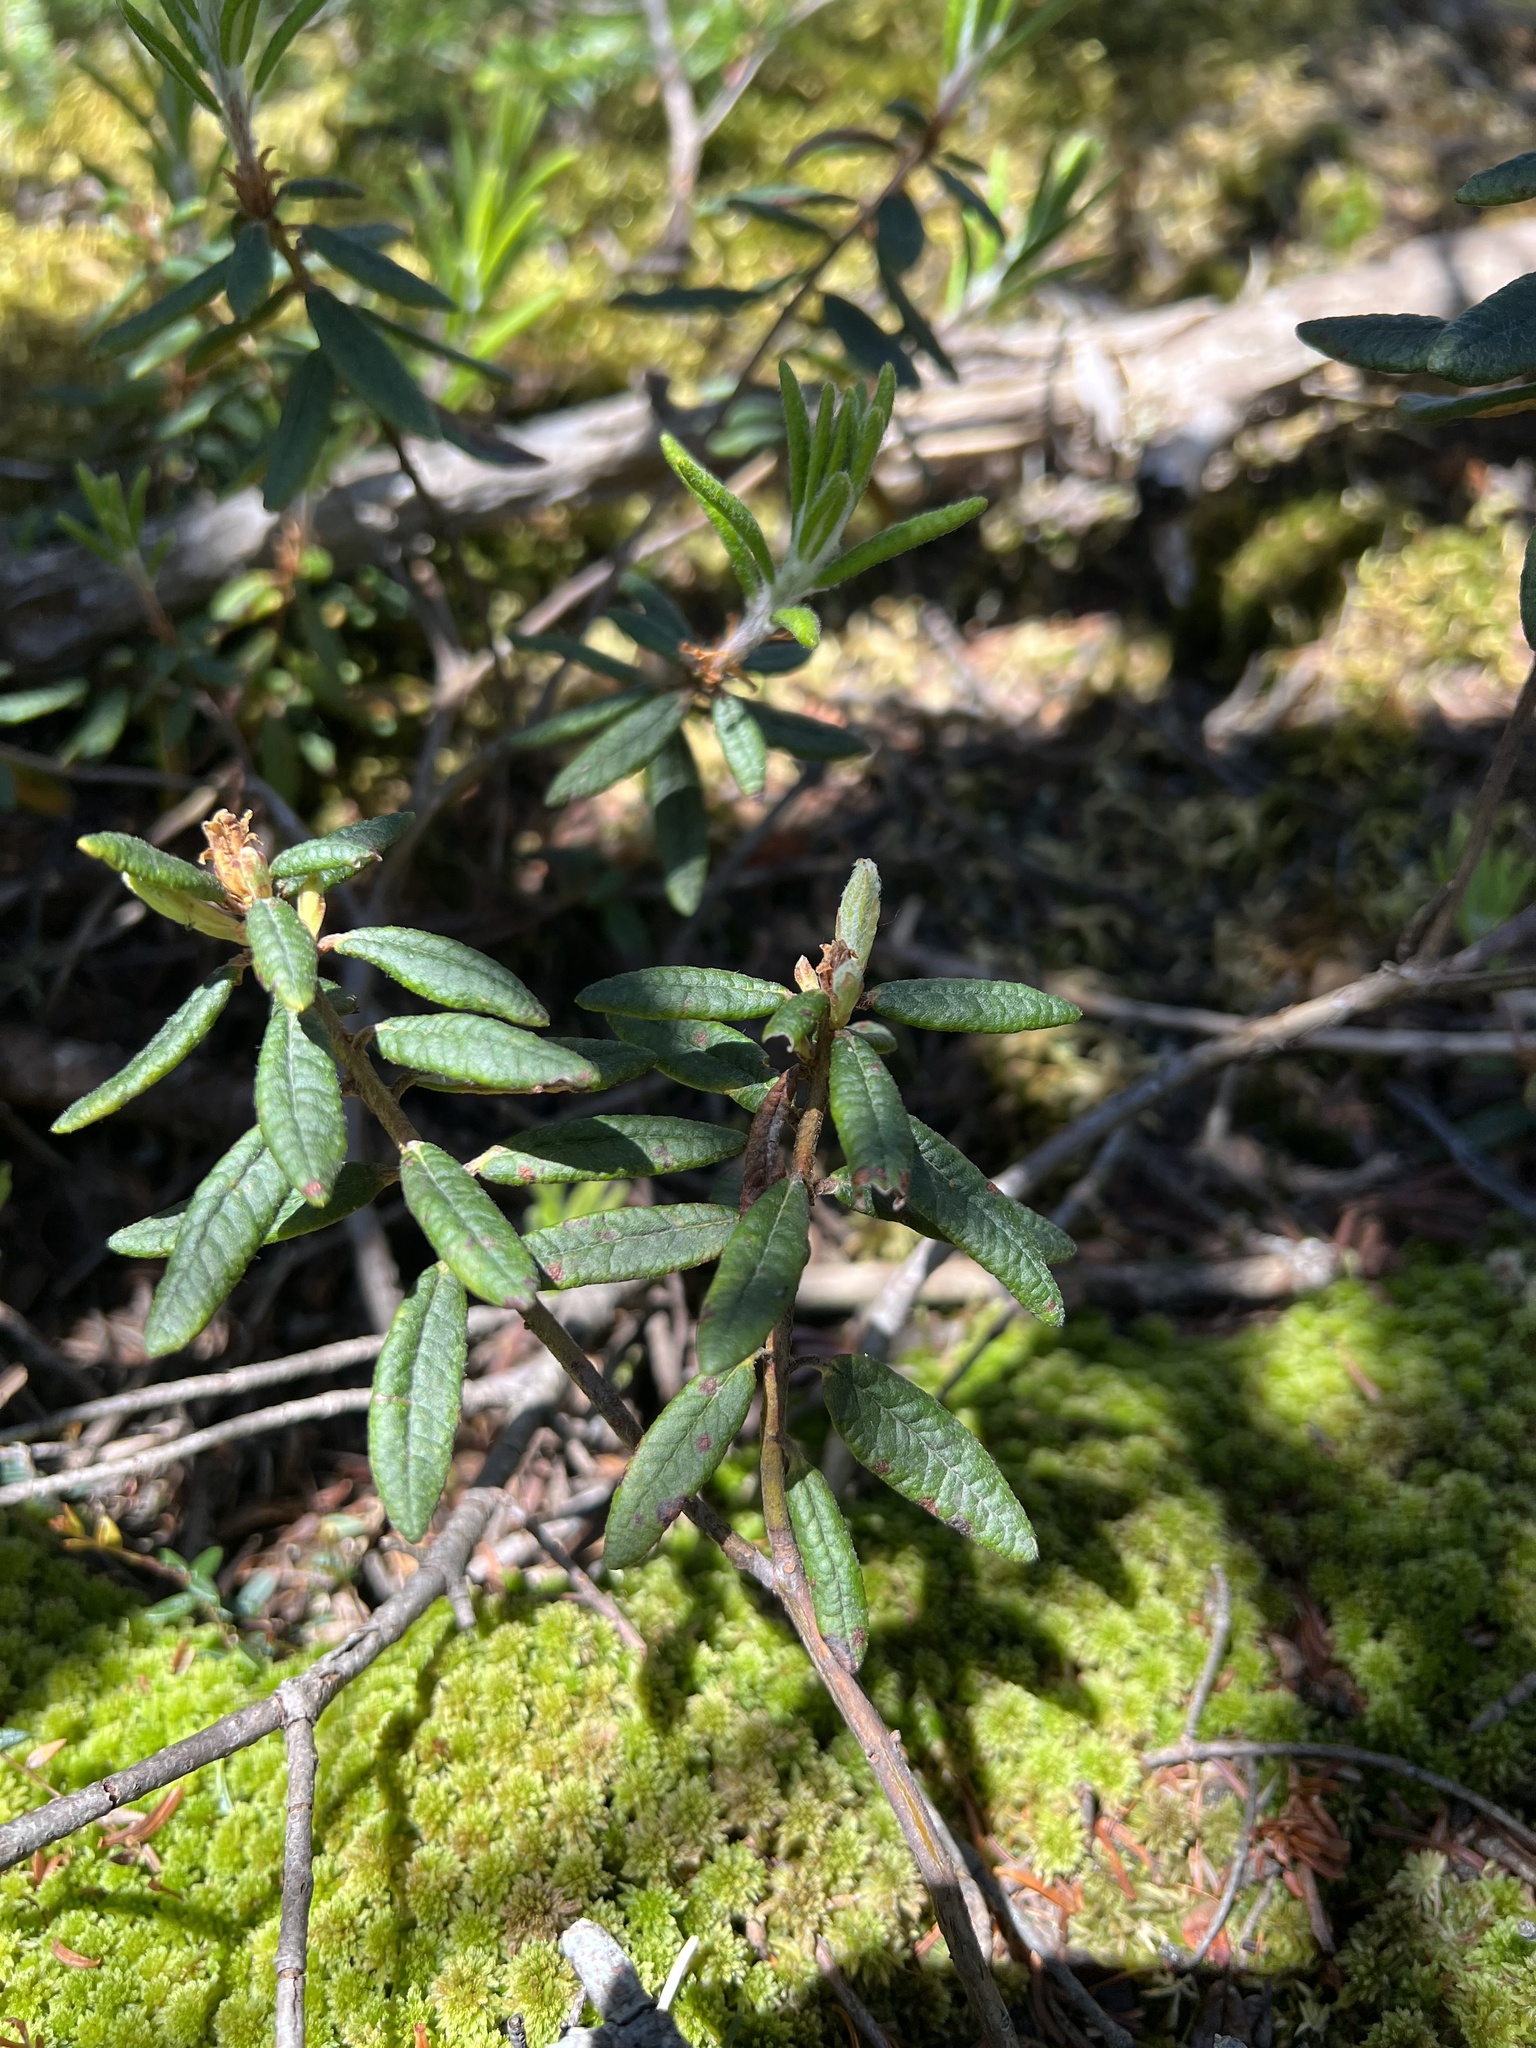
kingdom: Plantae
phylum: Tracheophyta
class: Magnoliopsida
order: Ericales
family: Ericaceae
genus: Rhododendron
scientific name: Rhododendron groenlandicum
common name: Bog labrador tea
